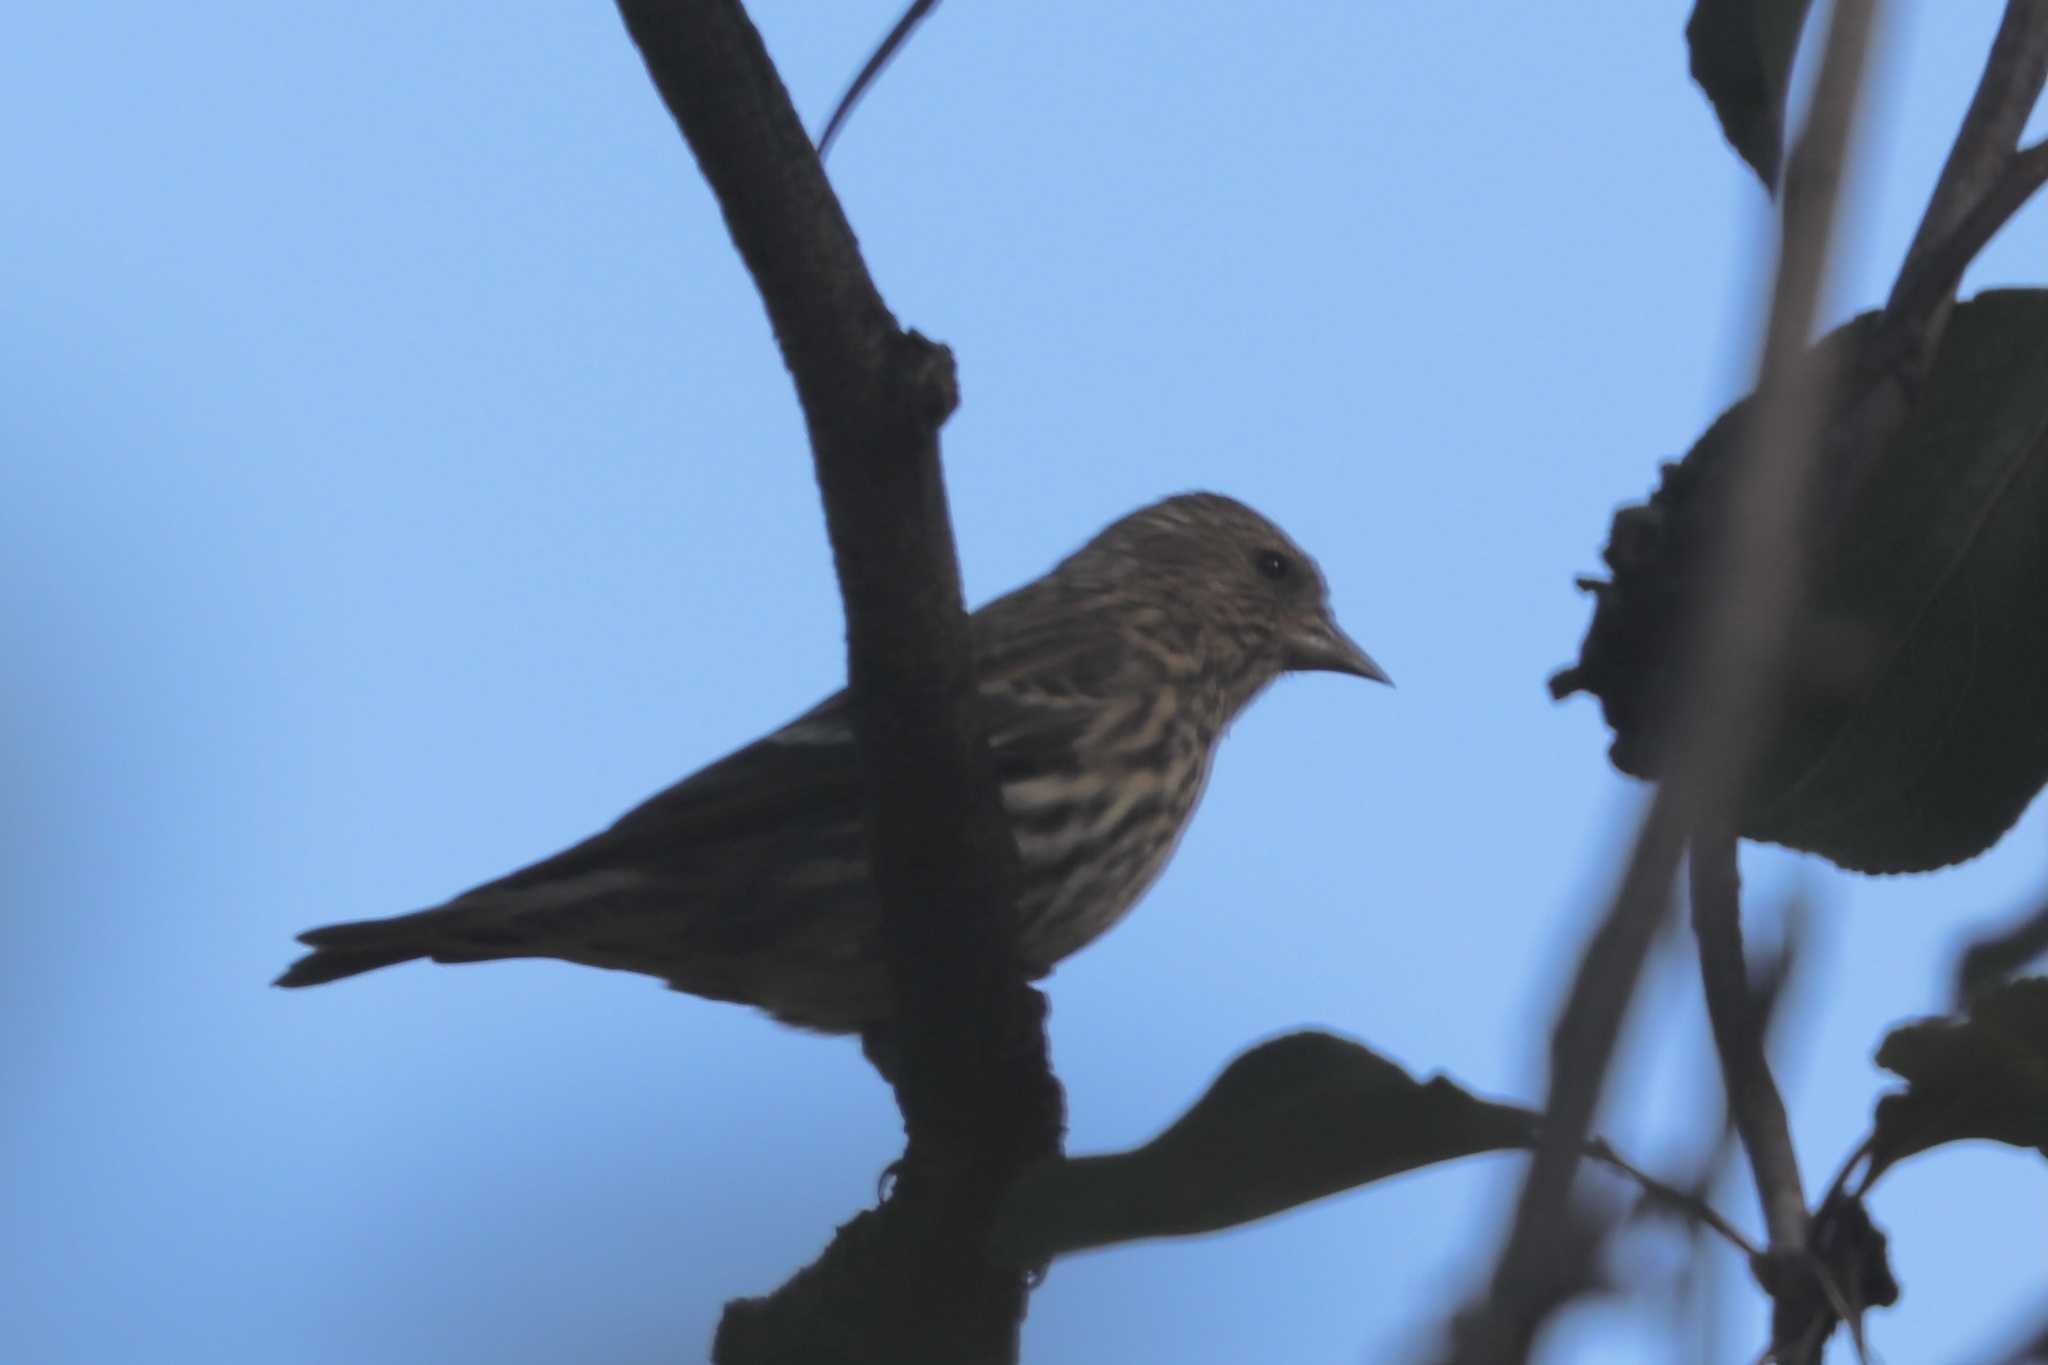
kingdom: Animalia
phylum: Chordata
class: Aves
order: Passeriformes
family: Fringillidae
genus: Spinus
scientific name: Spinus pinus
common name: Pine siskin
